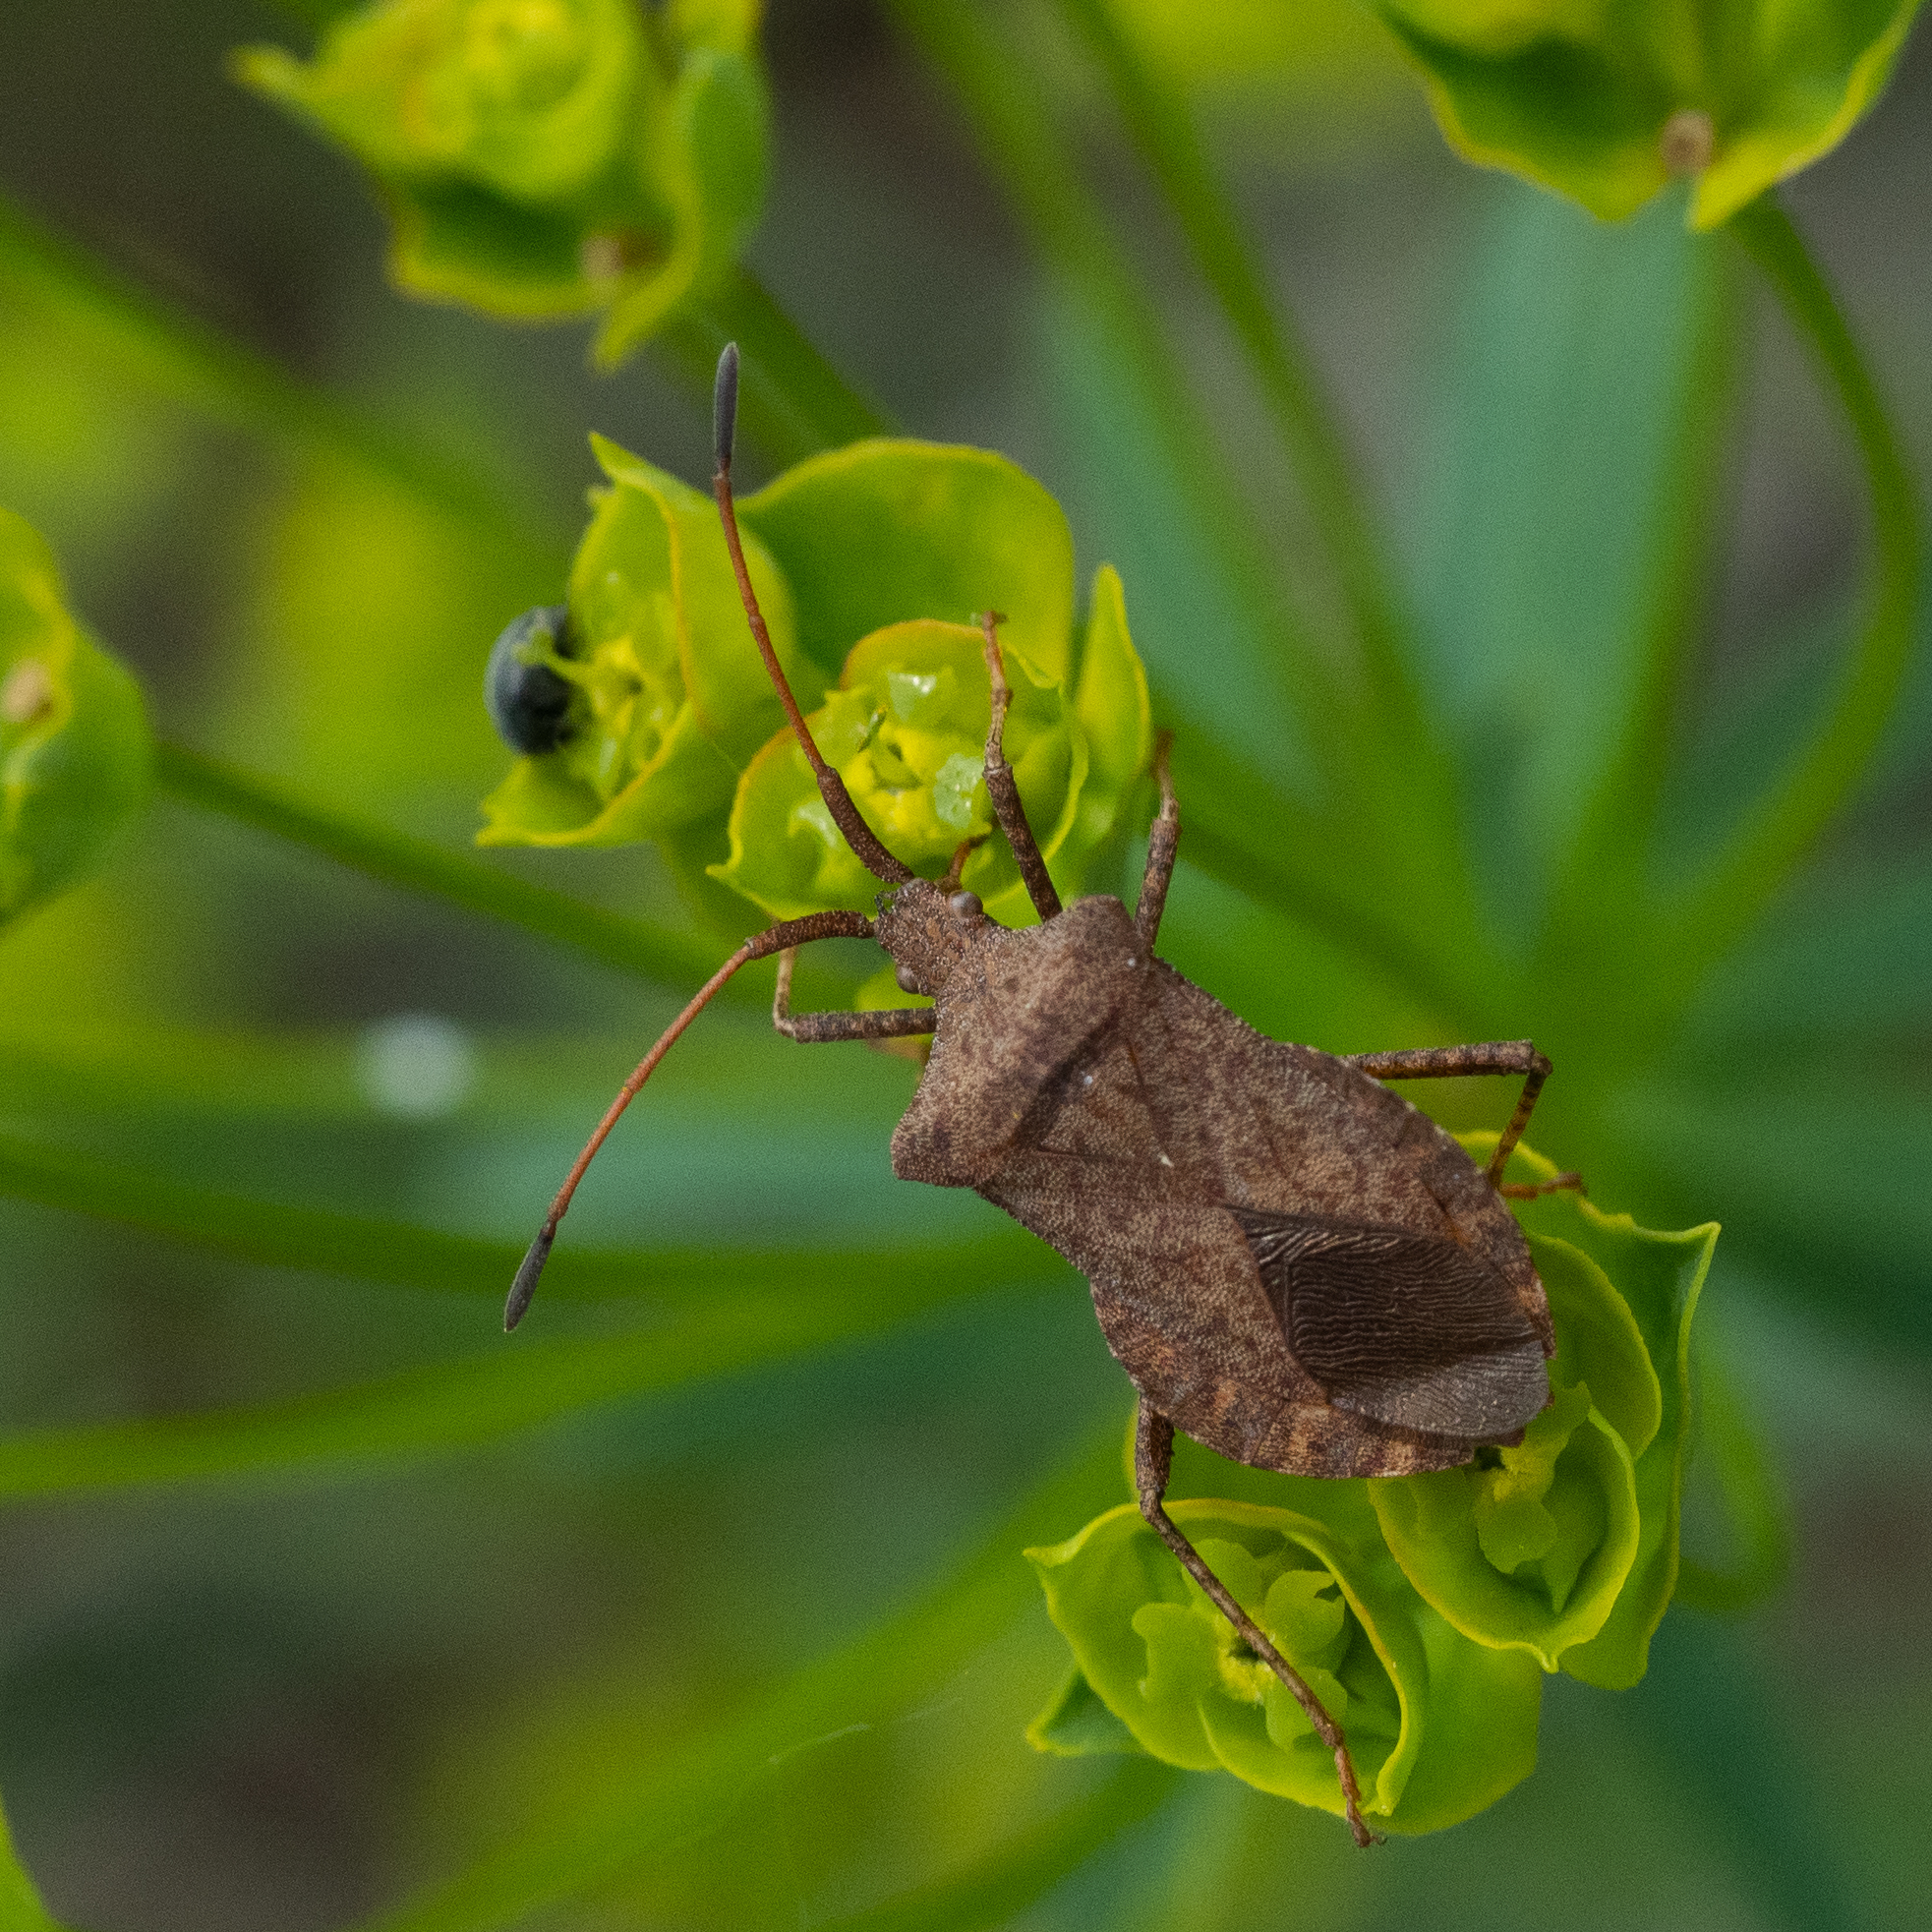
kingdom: Animalia
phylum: Arthropoda
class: Insecta
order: Hemiptera
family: Coreidae
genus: Coreus
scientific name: Coreus marginatus
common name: Dock bug
